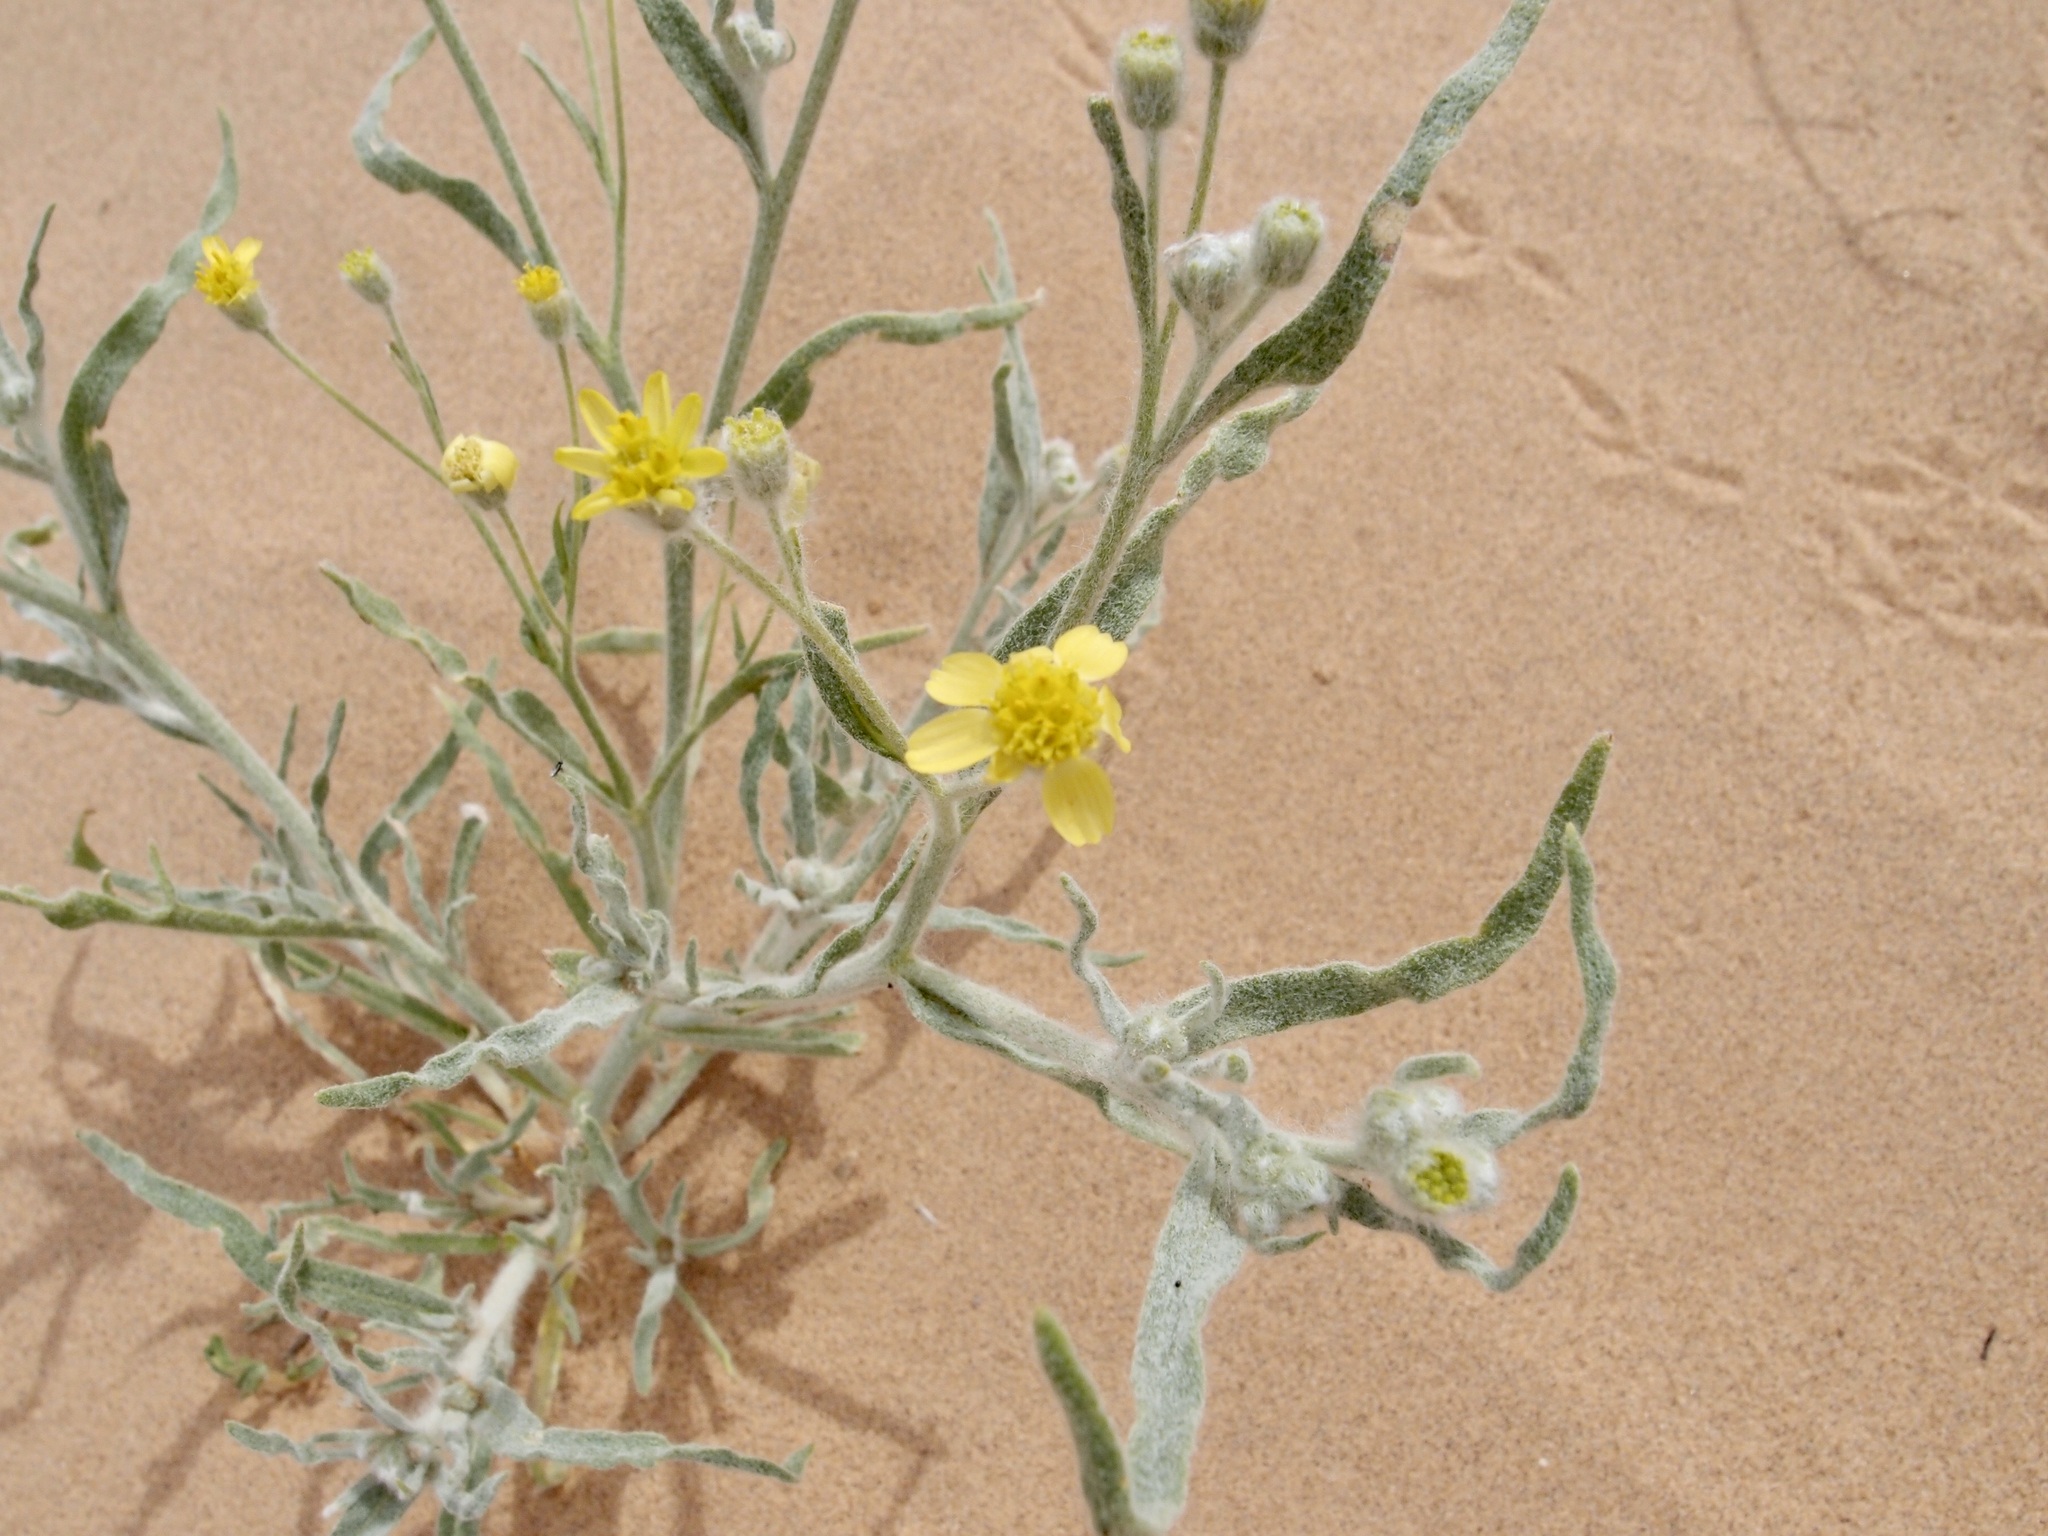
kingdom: Plantae
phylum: Tracheophyta
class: Magnoliopsida
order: Asterales
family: Asteraceae
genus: Baileya
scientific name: Baileya pauciradiata
